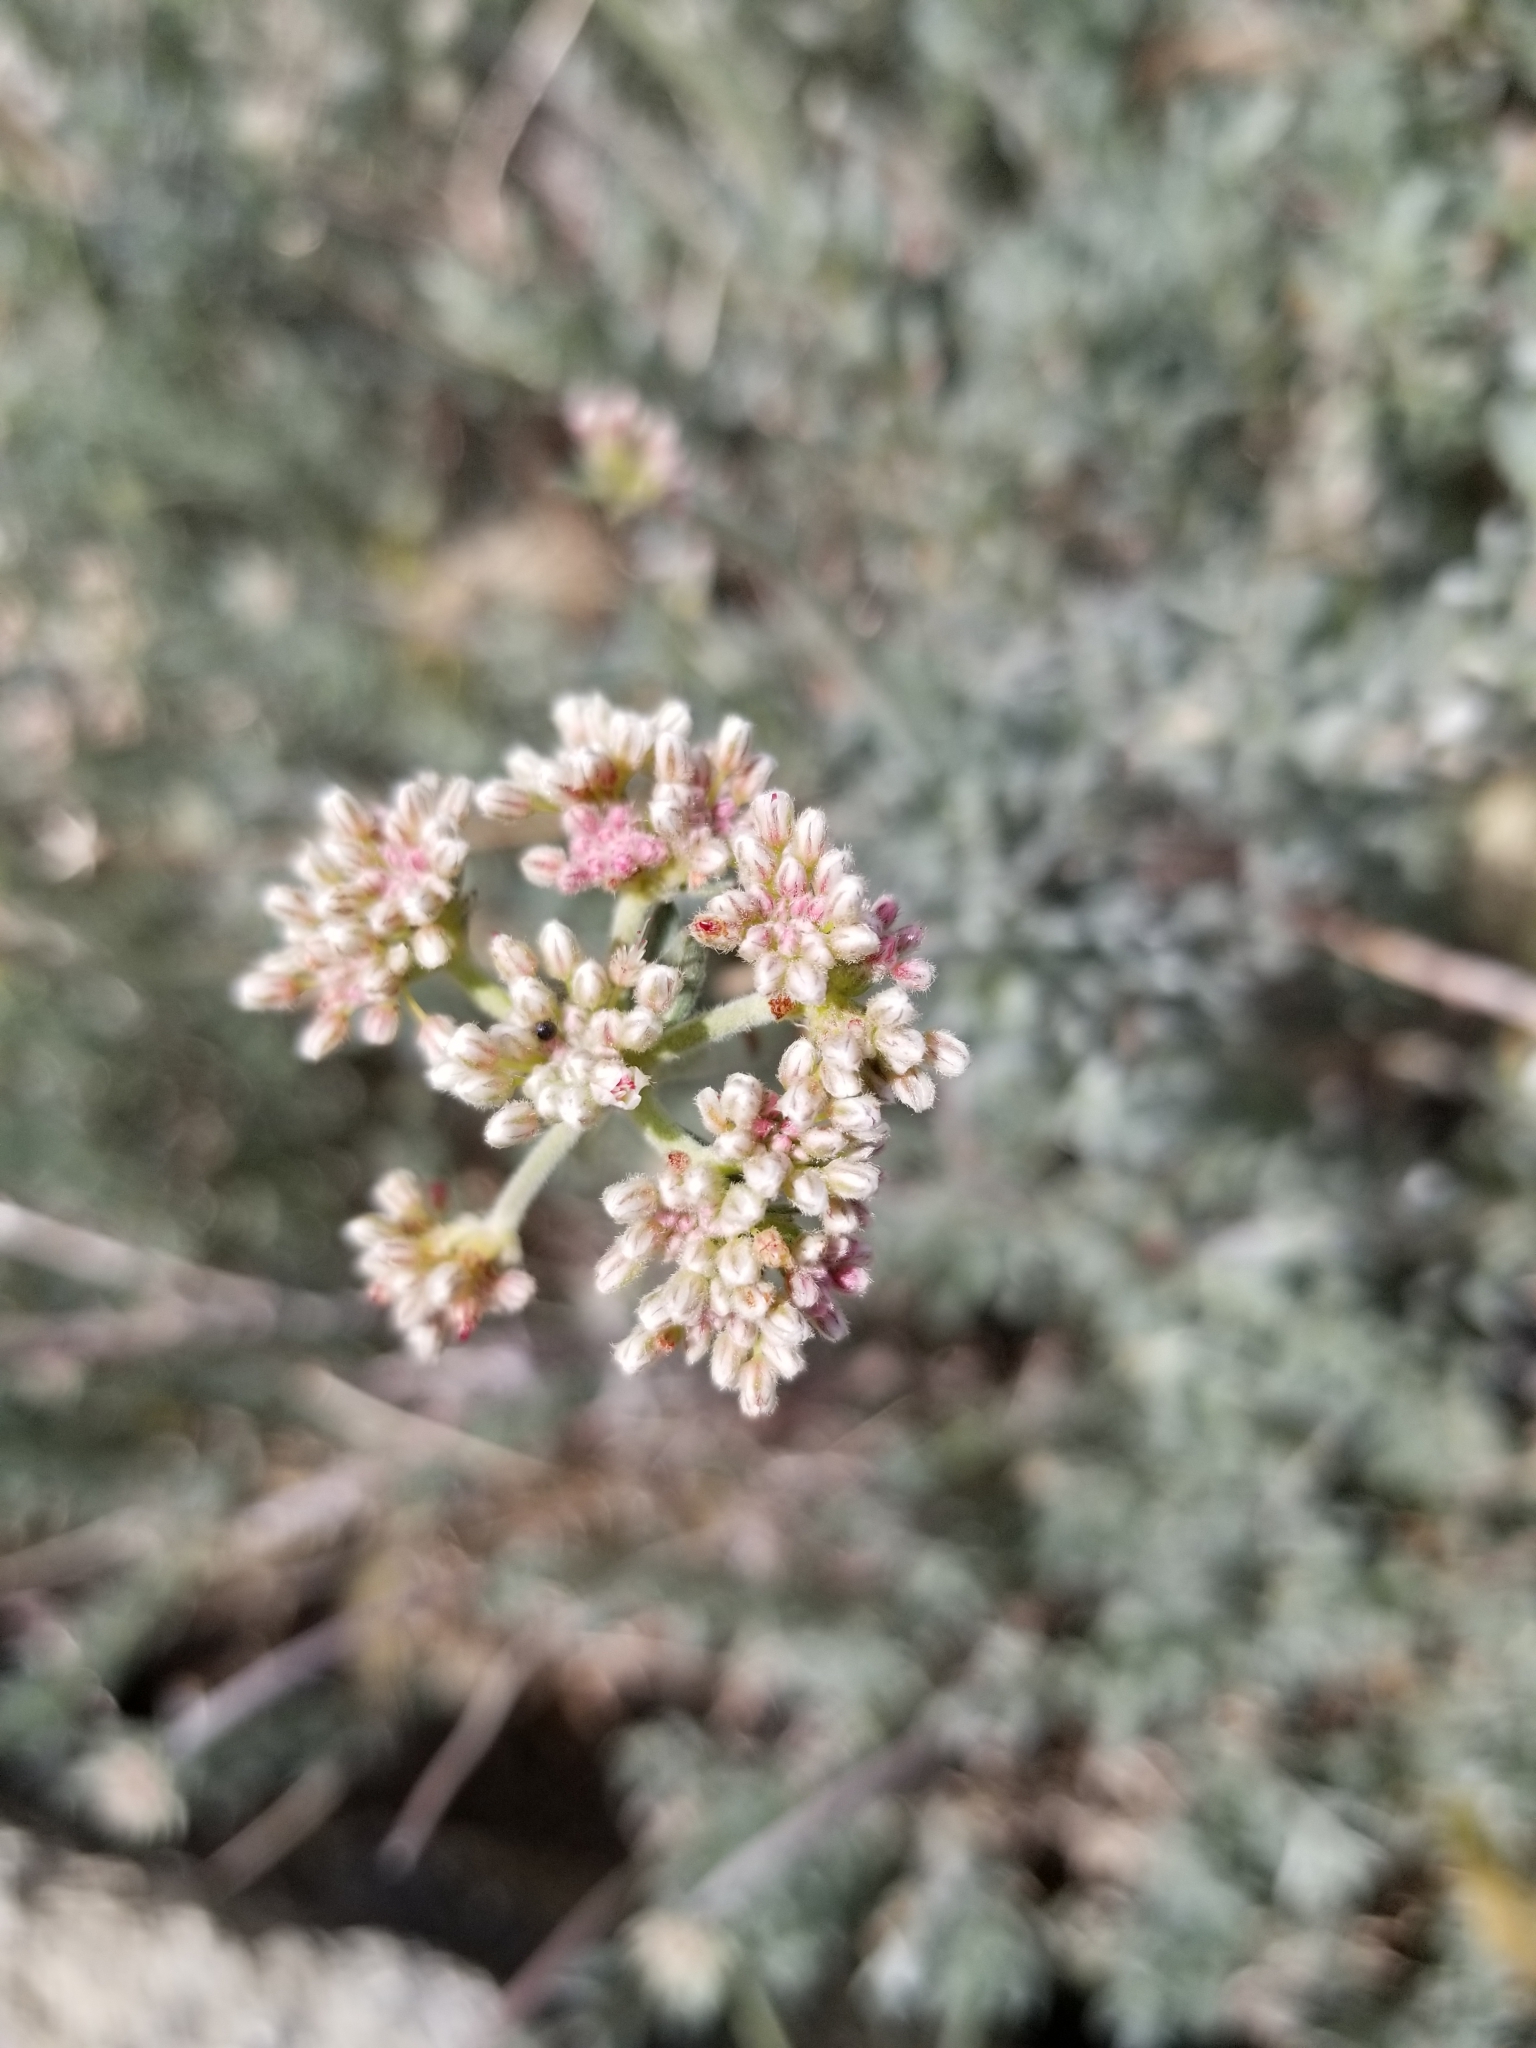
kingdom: Plantae
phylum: Tracheophyta
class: Magnoliopsida
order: Caryophyllales
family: Polygonaceae
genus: Eriogonum
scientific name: Eriogonum fasciculatum
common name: California wild buckwheat
